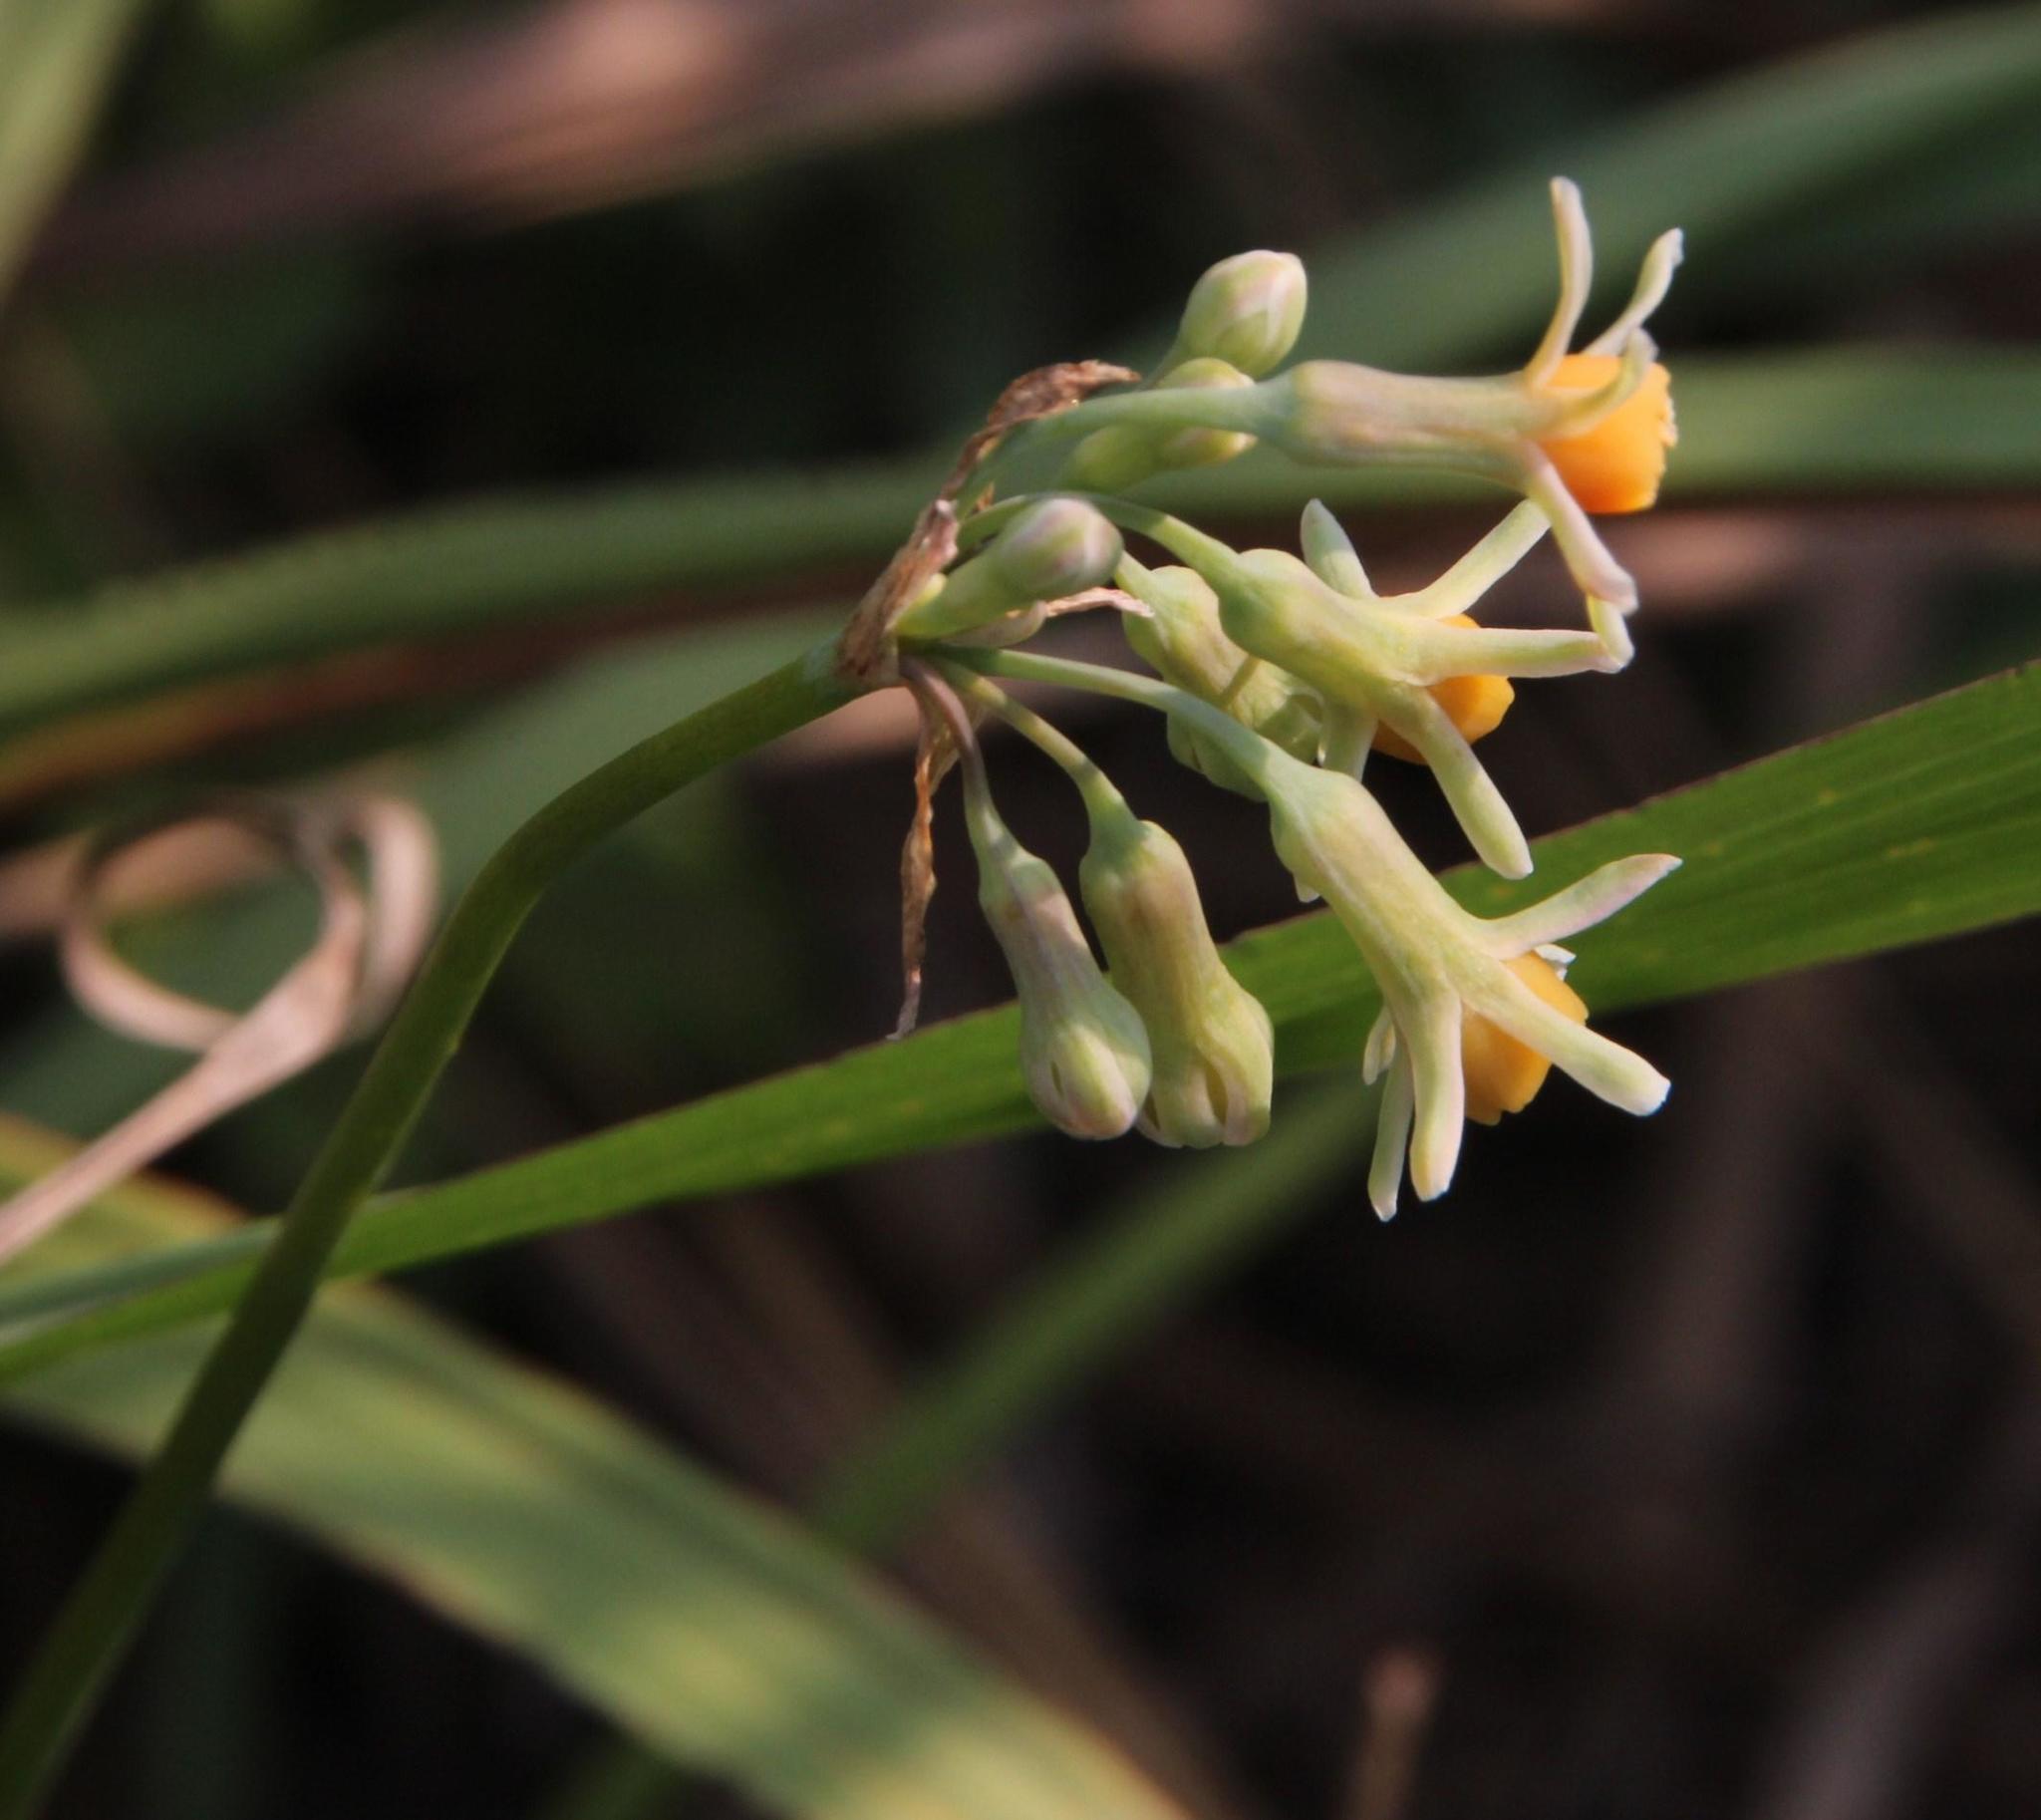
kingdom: Plantae
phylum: Tracheophyta
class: Liliopsida
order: Asparagales
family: Amaryllidaceae
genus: Tulbaghia
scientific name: Tulbaghia acutiloba
